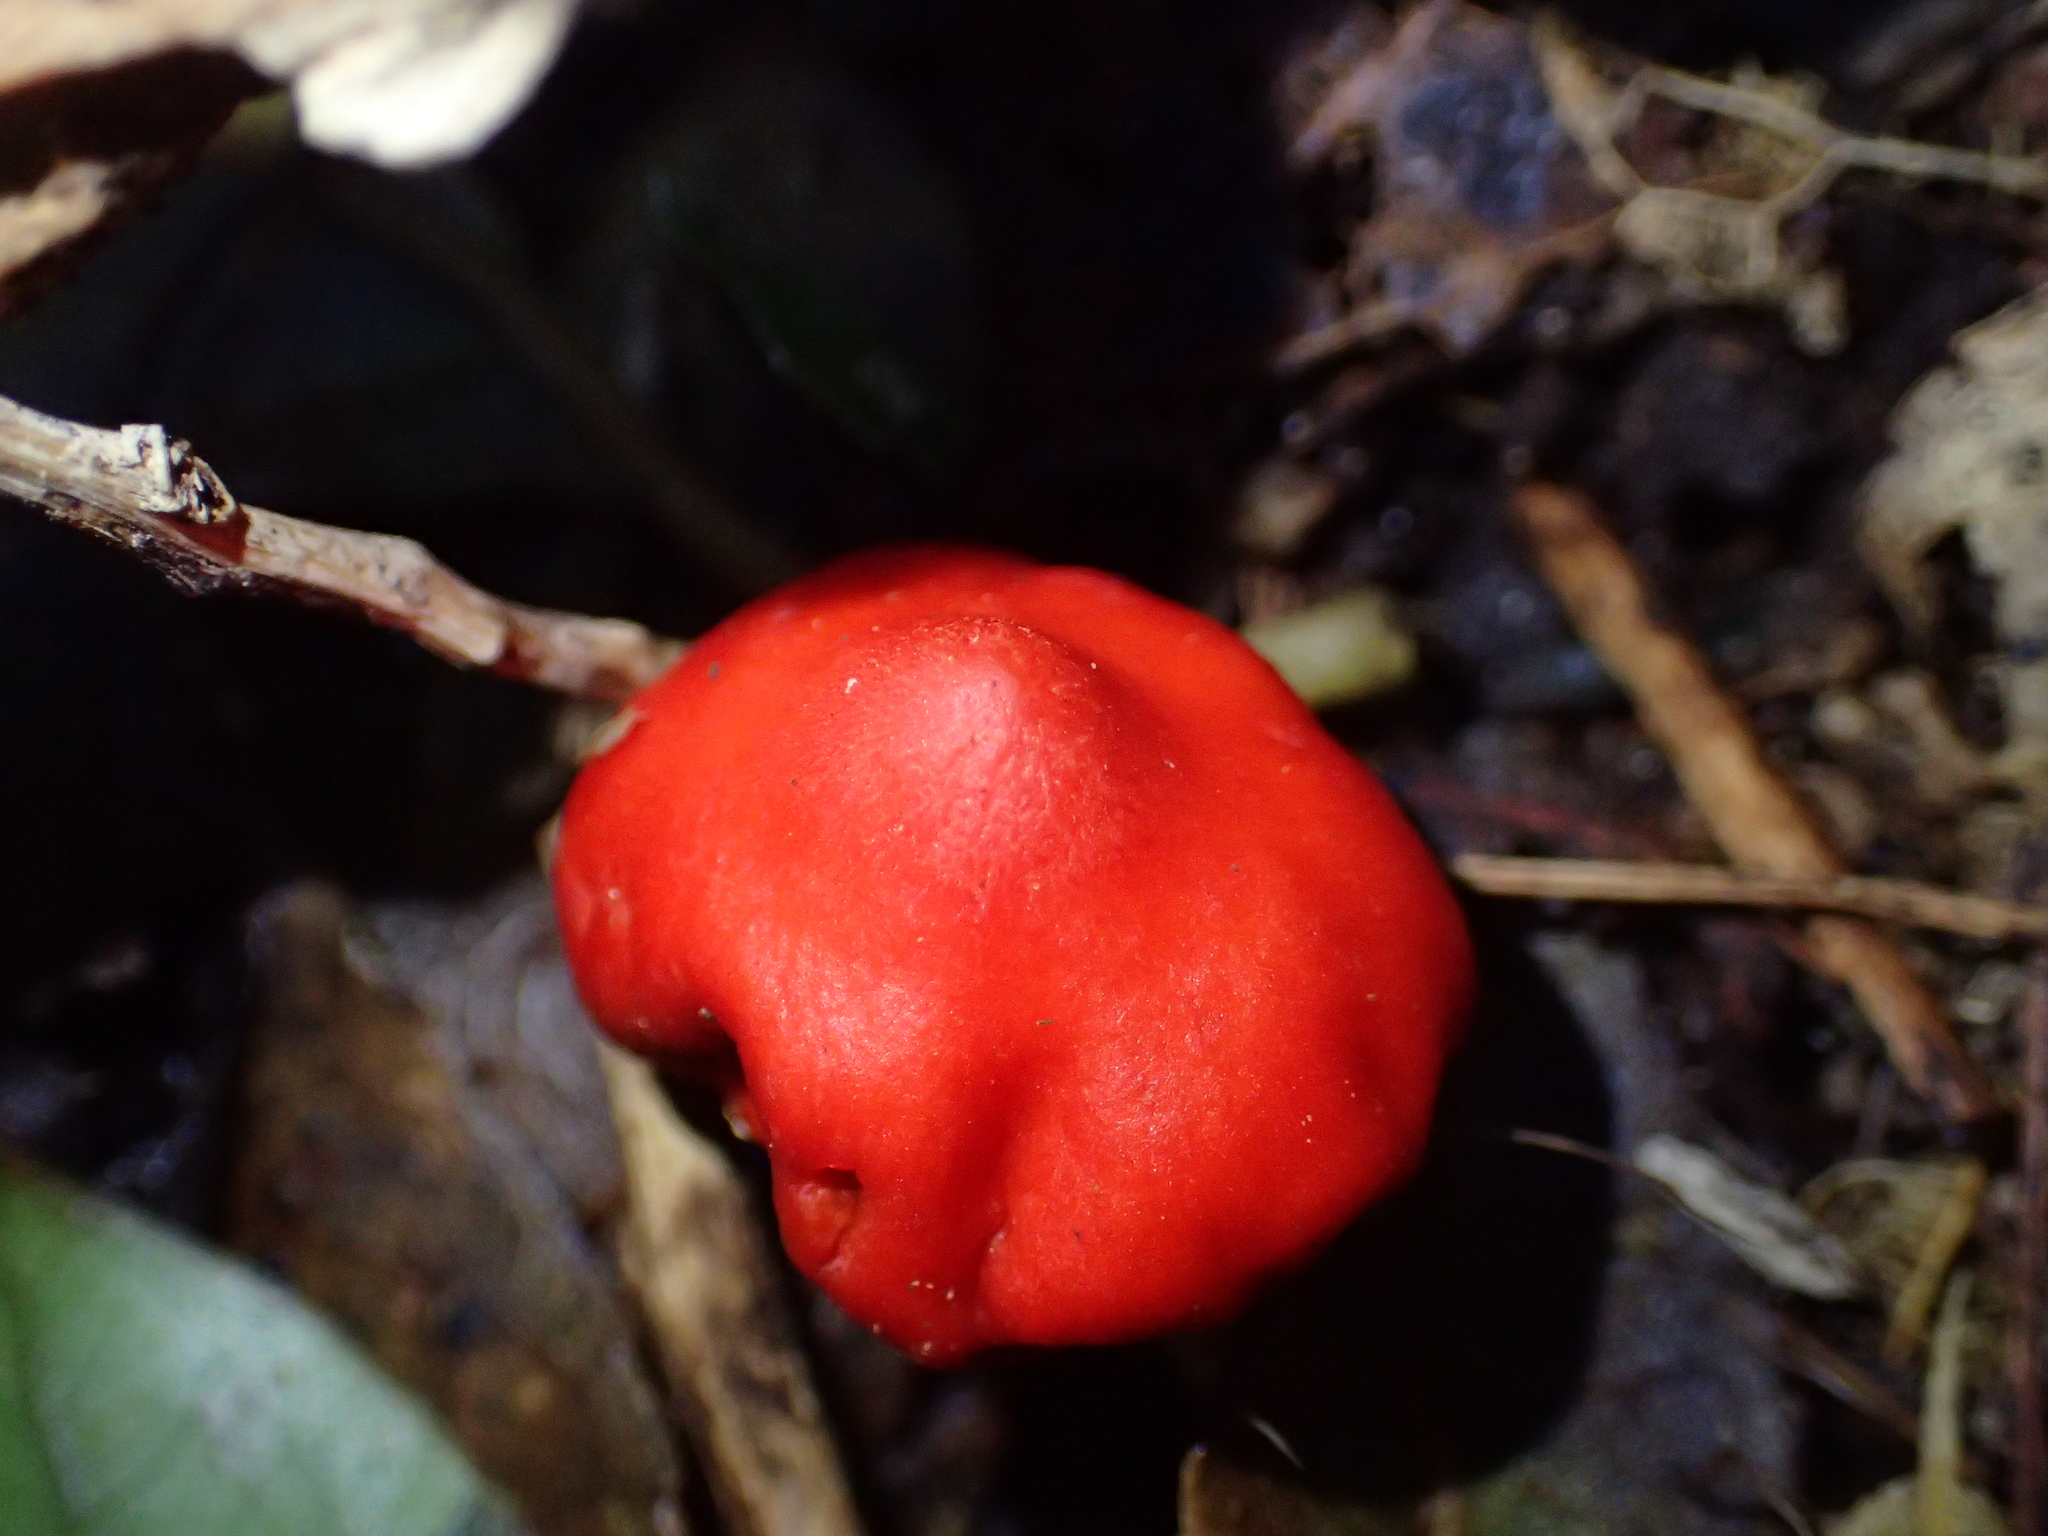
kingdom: Fungi
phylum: Basidiomycota
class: Agaricomycetes
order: Agaricales
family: Strophariaceae
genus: Leratiomyces
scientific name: Leratiomyces erythrocephalus
